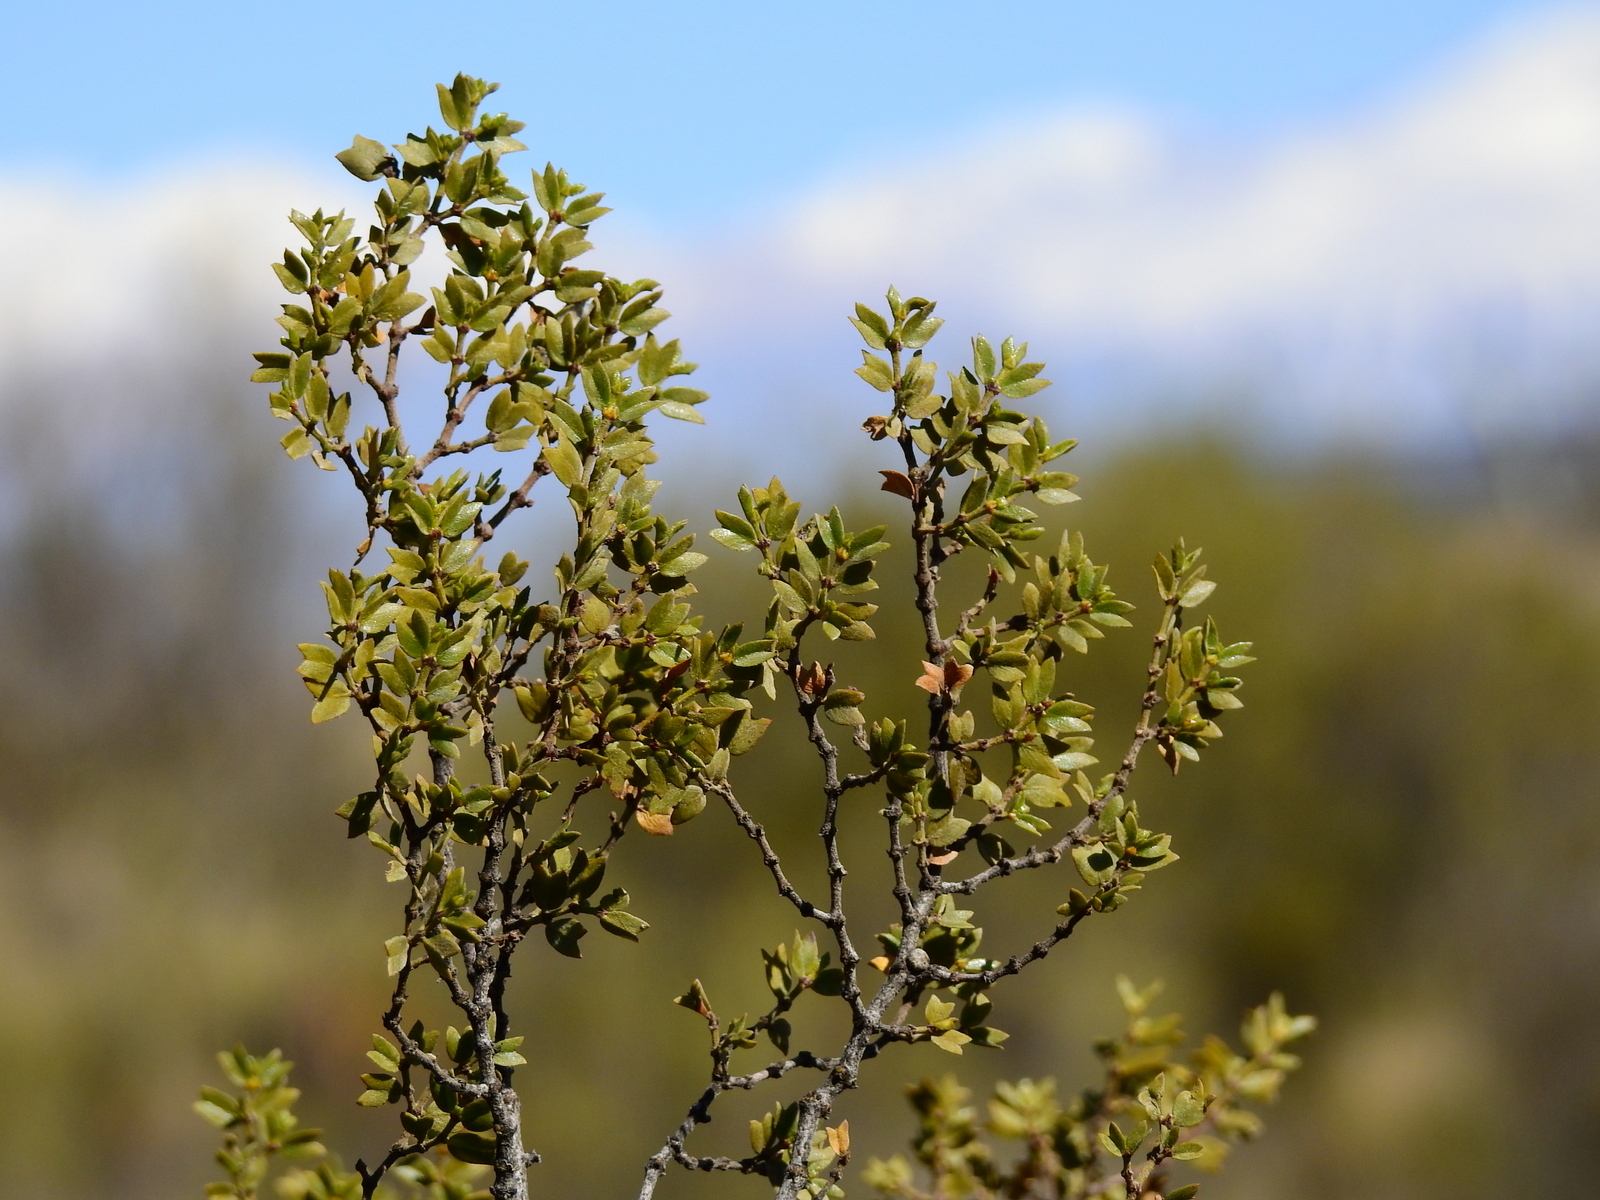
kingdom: Plantae
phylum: Tracheophyta
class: Magnoliopsida
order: Zygophyllales
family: Zygophyllaceae
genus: Larrea
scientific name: Larrea cuneifolia
